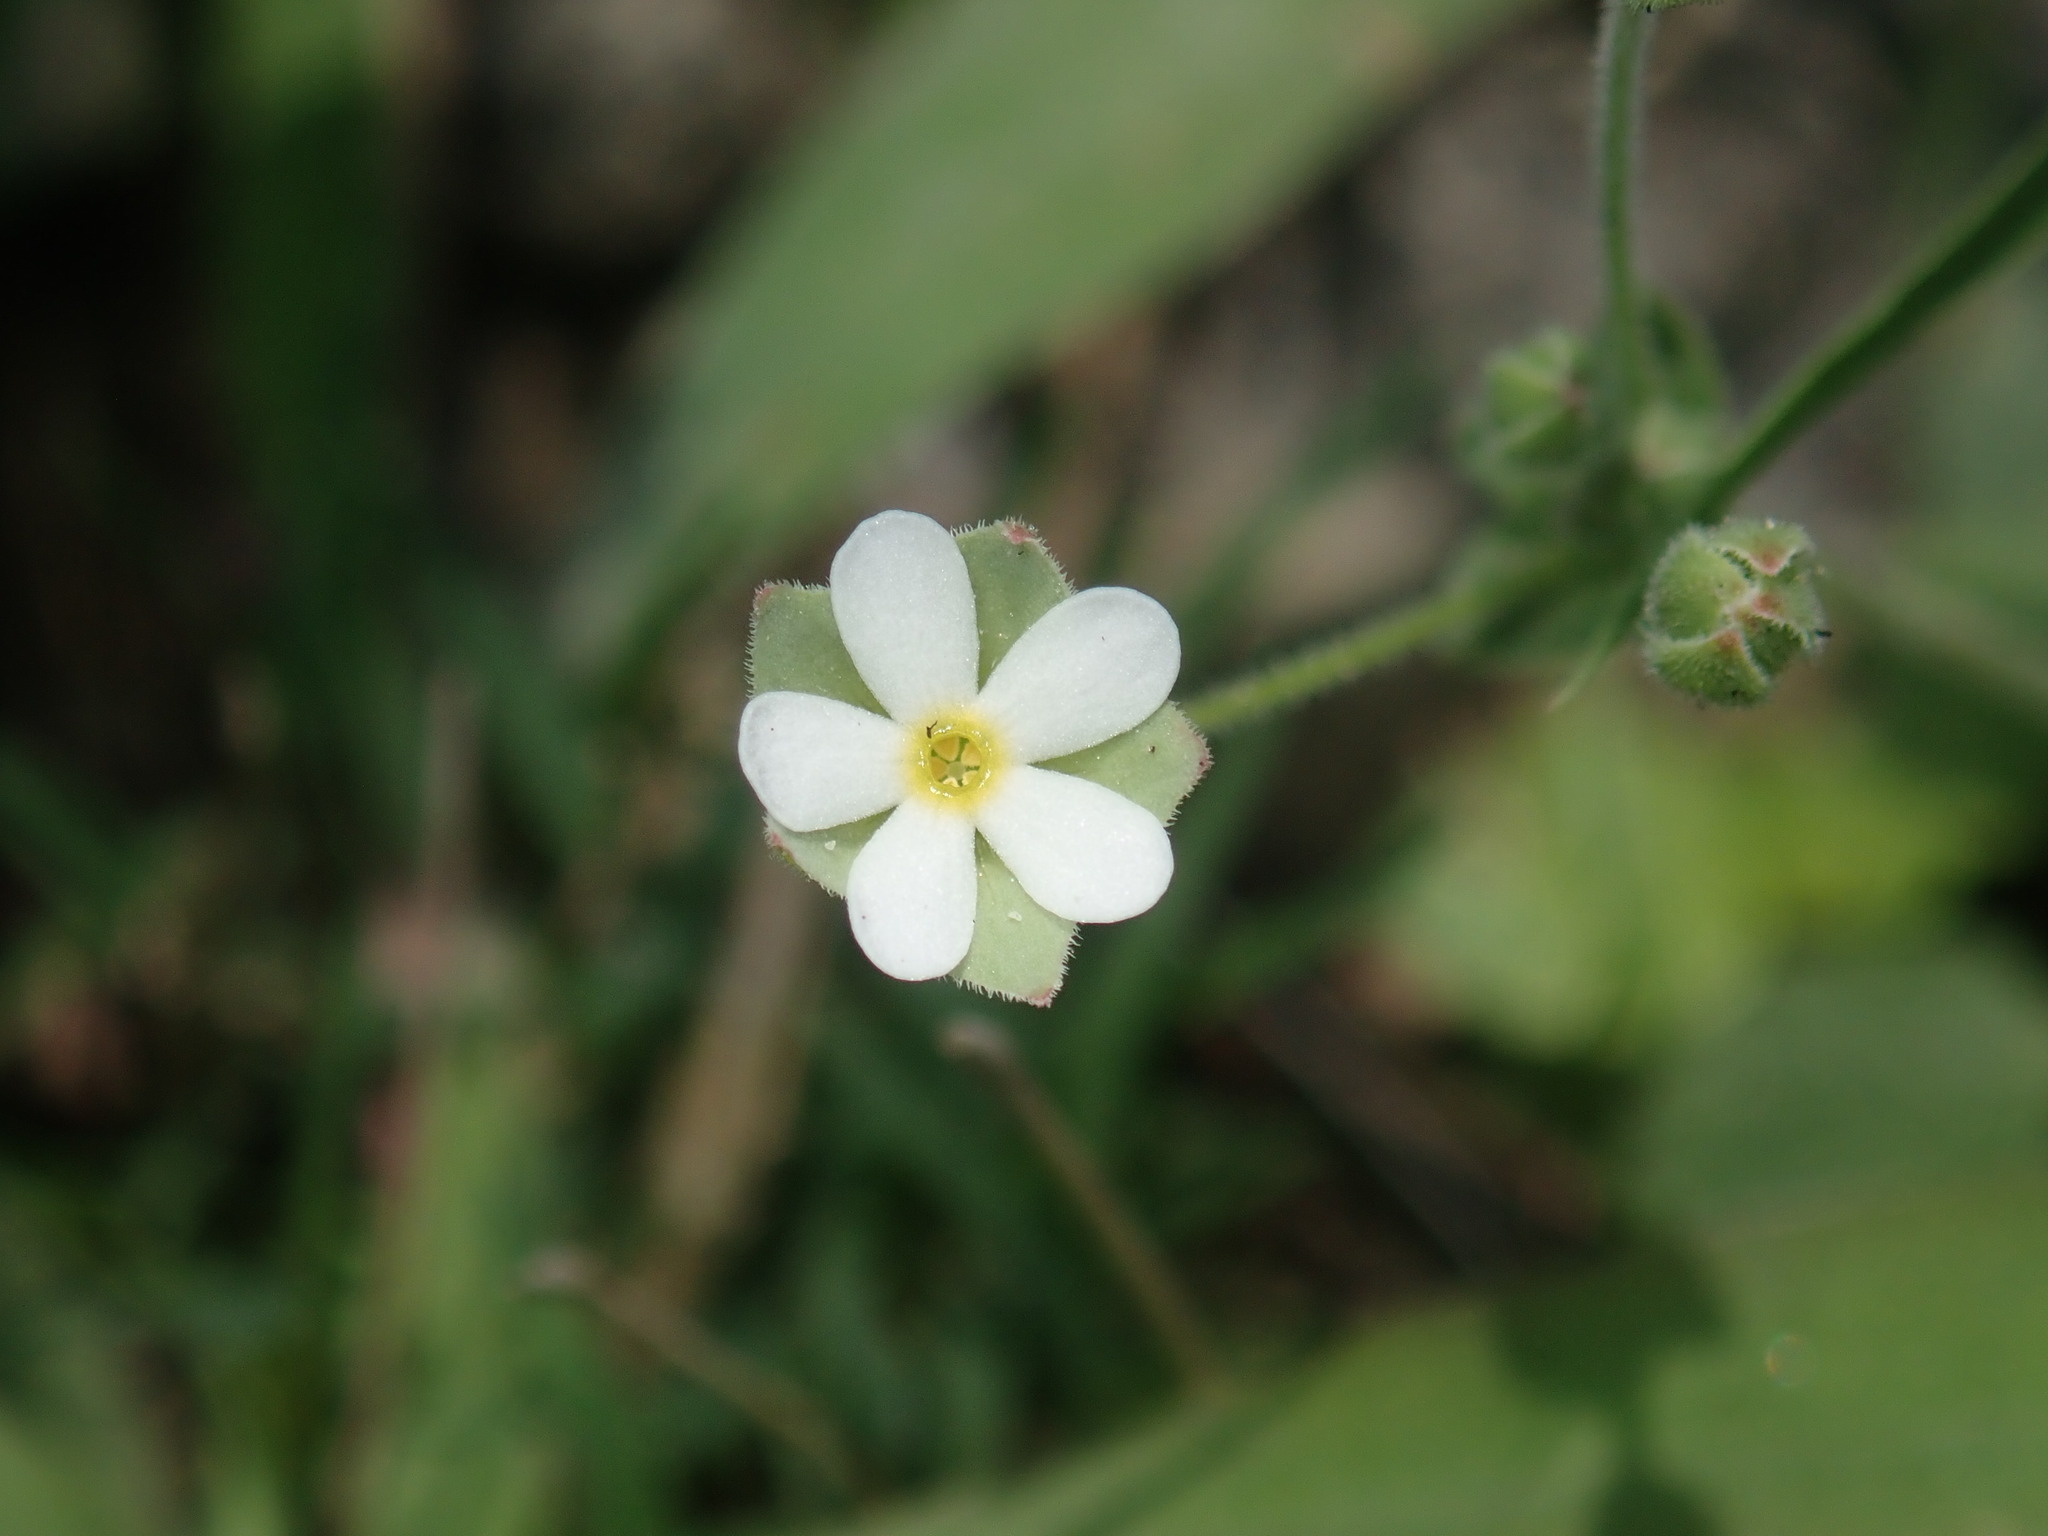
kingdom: Plantae
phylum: Tracheophyta
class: Magnoliopsida
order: Ericales
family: Primulaceae
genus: Androsace
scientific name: Androsace umbellata
